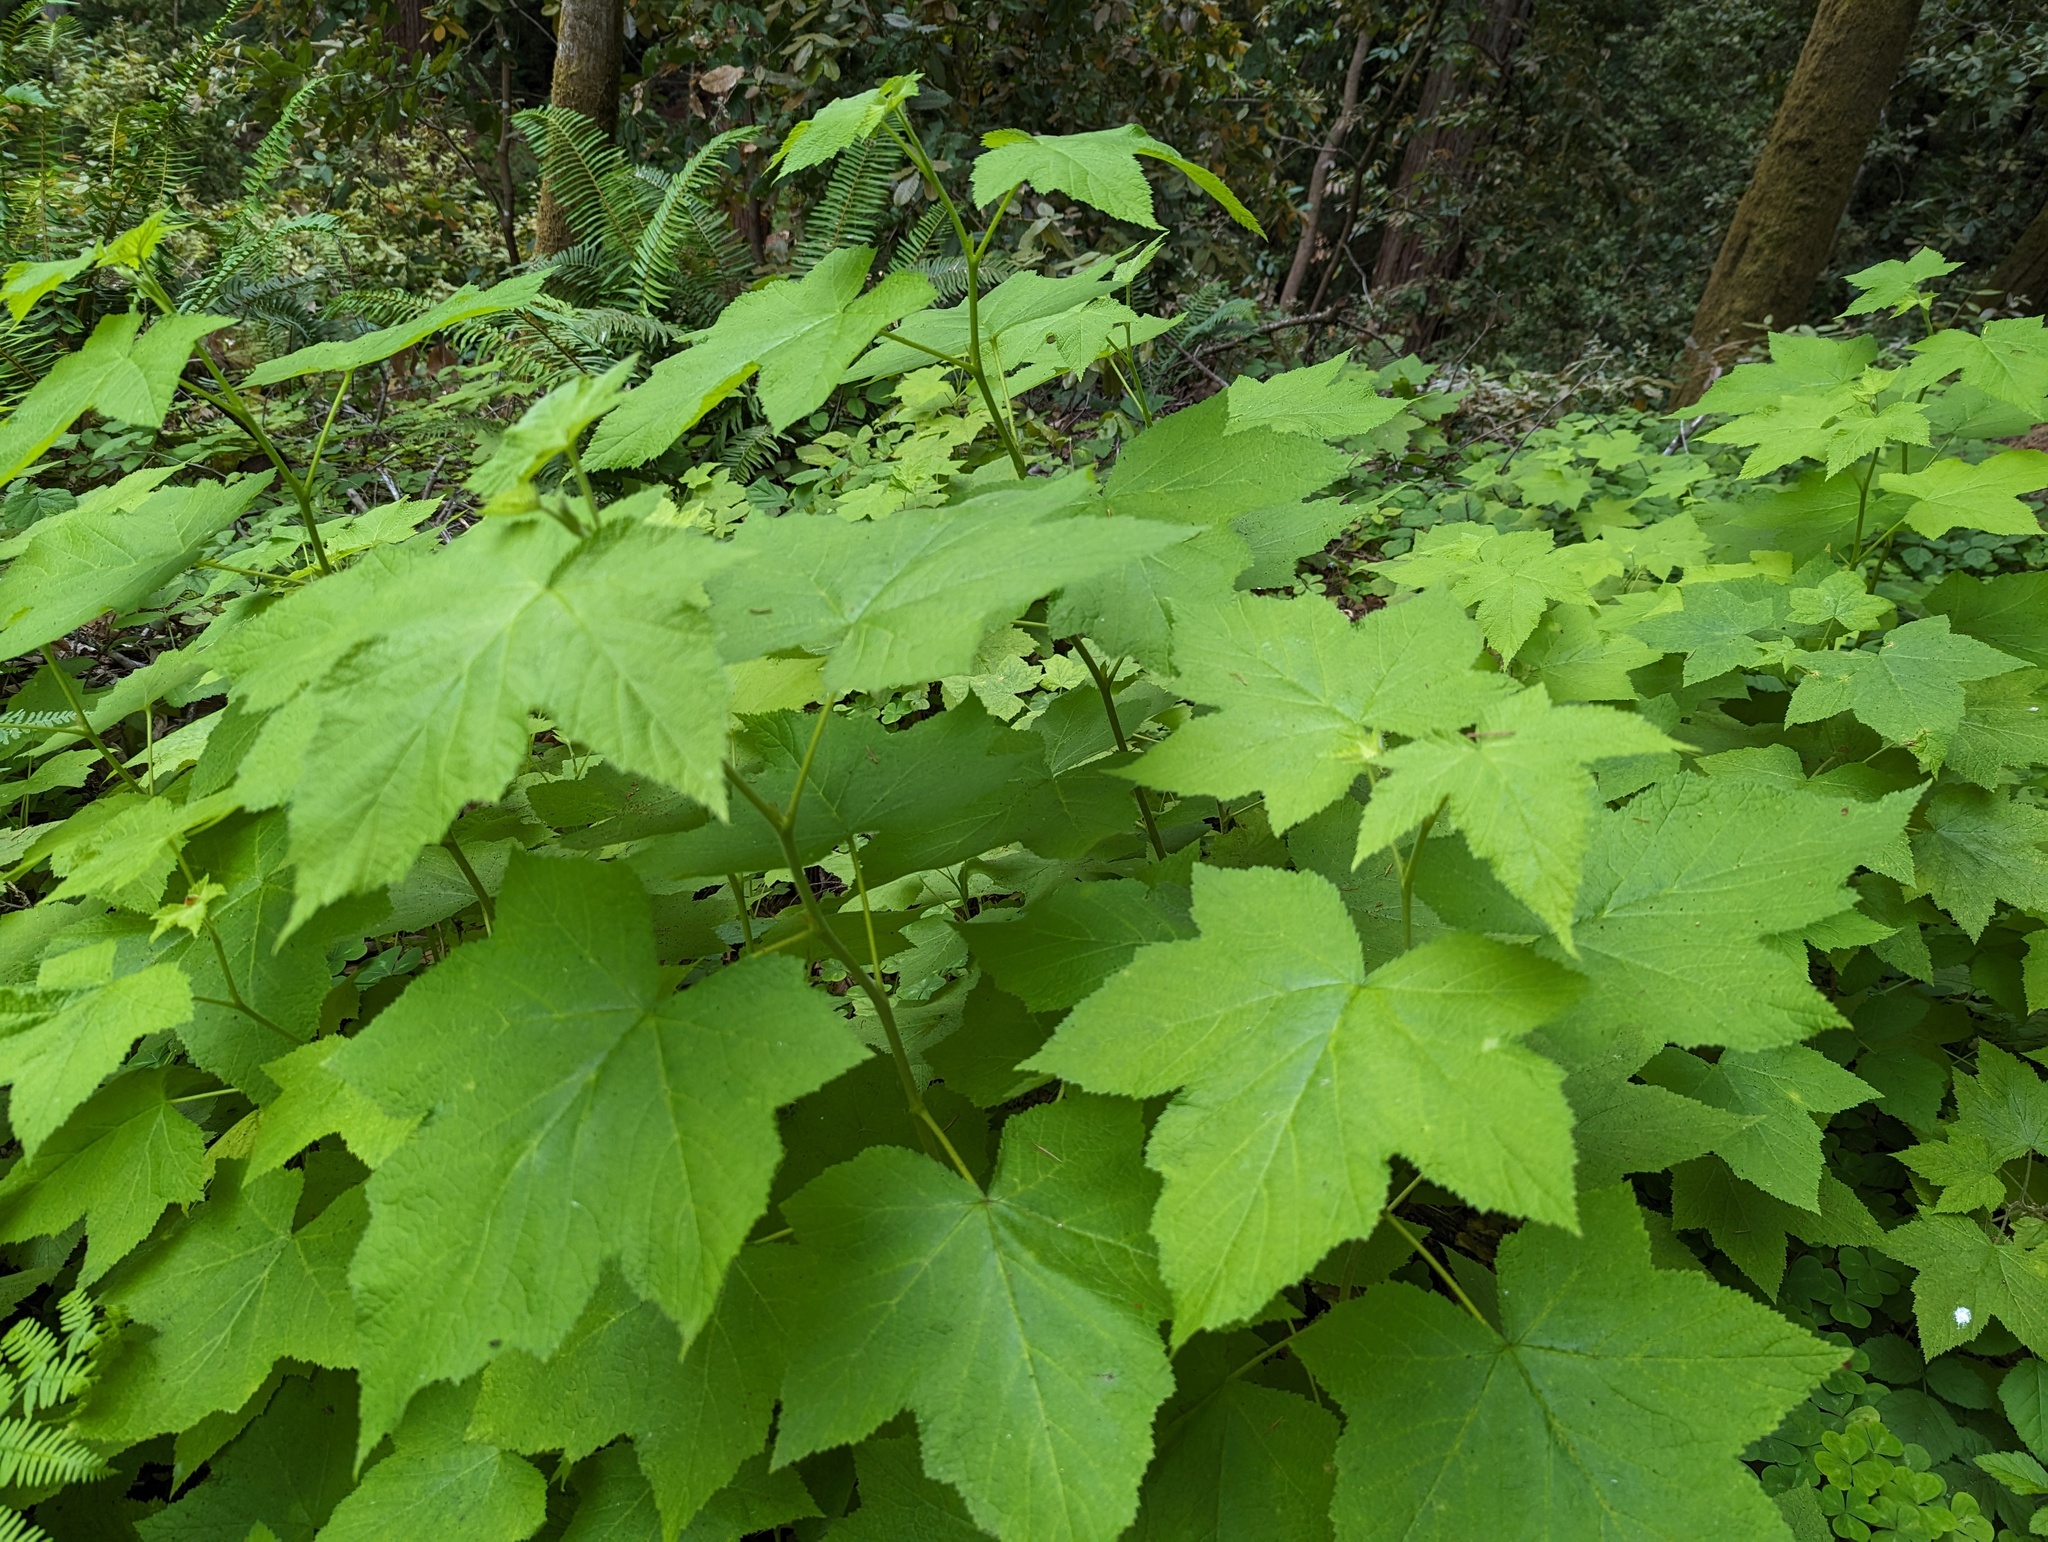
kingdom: Plantae
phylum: Tracheophyta
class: Magnoliopsida
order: Rosales
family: Rosaceae
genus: Rubus
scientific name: Rubus parviflorus
